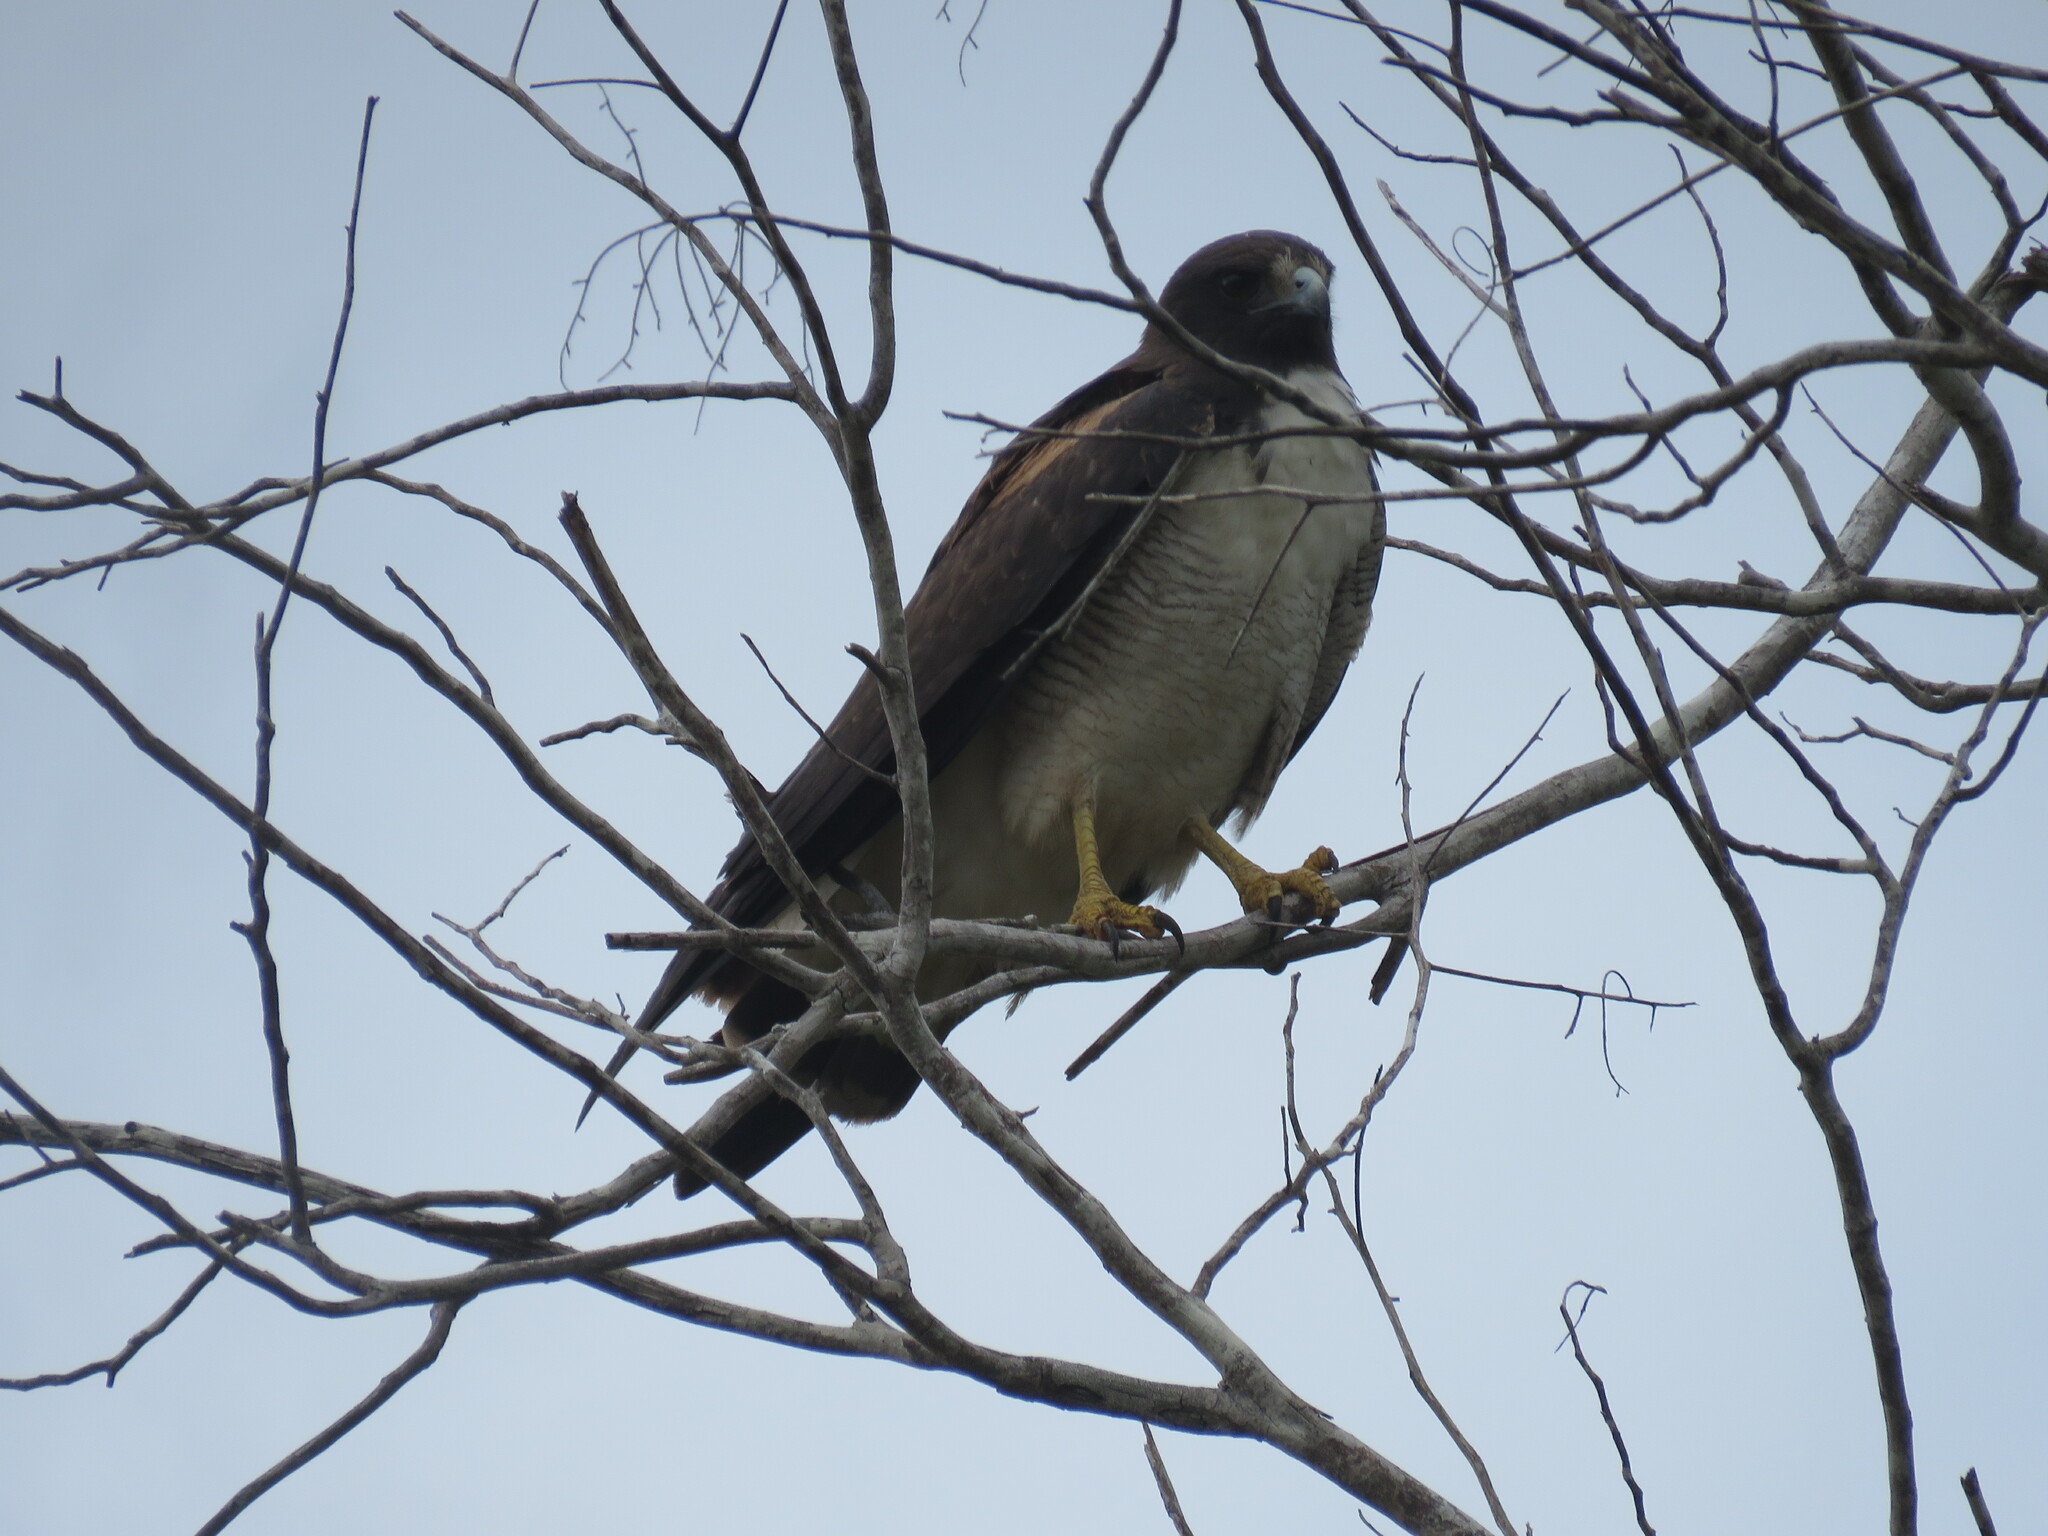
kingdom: Animalia
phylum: Chordata
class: Aves
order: Accipitriformes
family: Accipitridae
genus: Buteo
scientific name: Buteo albicaudatus
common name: White-tailed hawk
